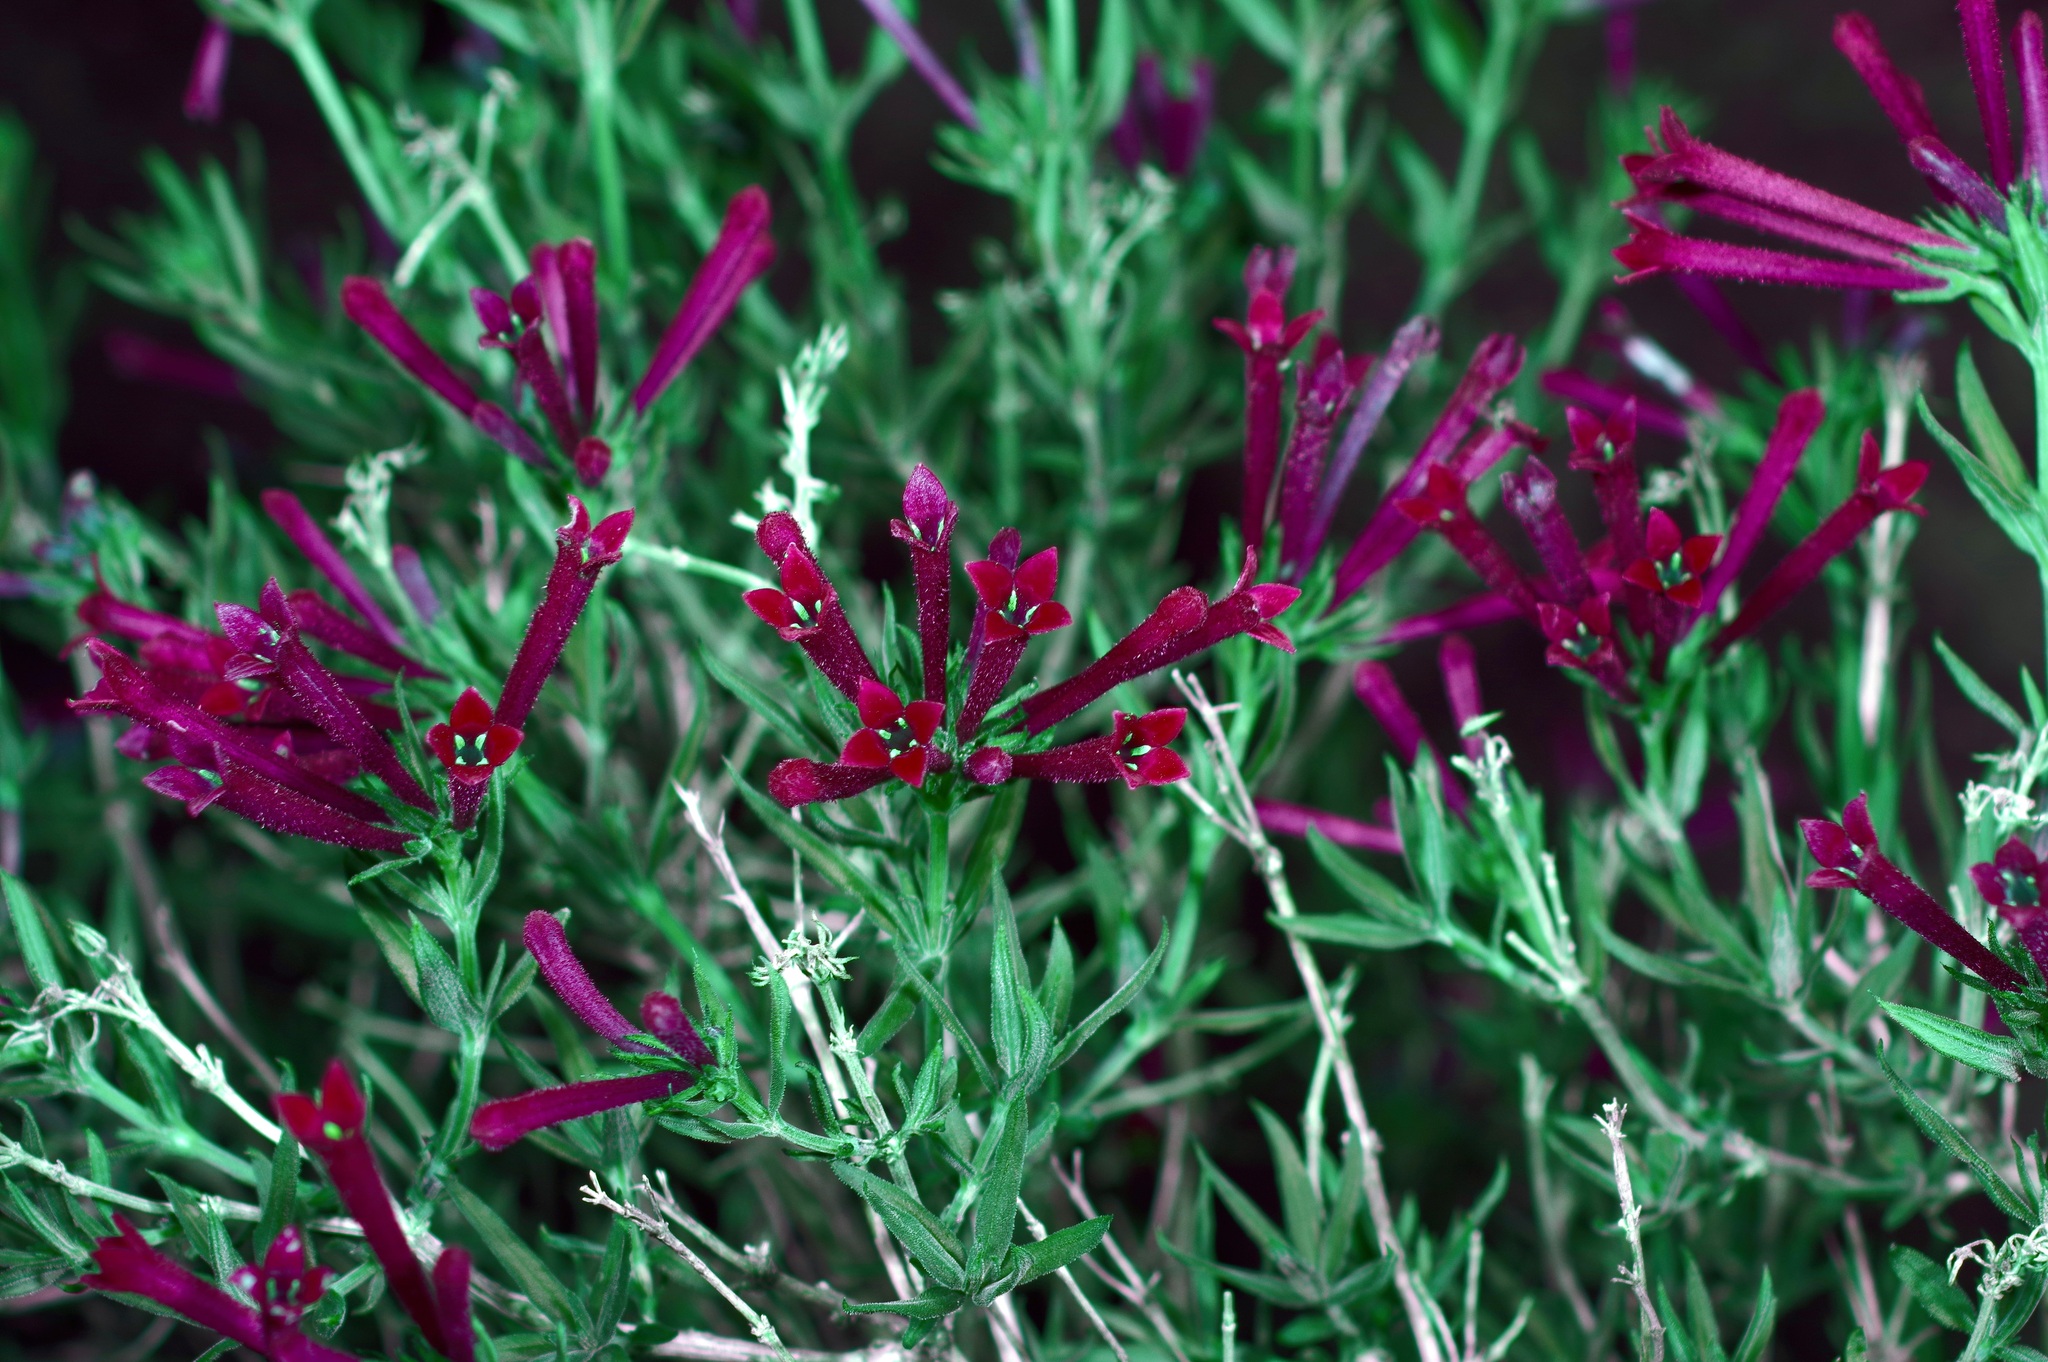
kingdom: Plantae
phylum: Tracheophyta
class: Magnoliopsida
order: Gentianales
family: Rubiaceae
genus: Bouvardia
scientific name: Bouvardia ternifolia
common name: Scarlet bouvardia
